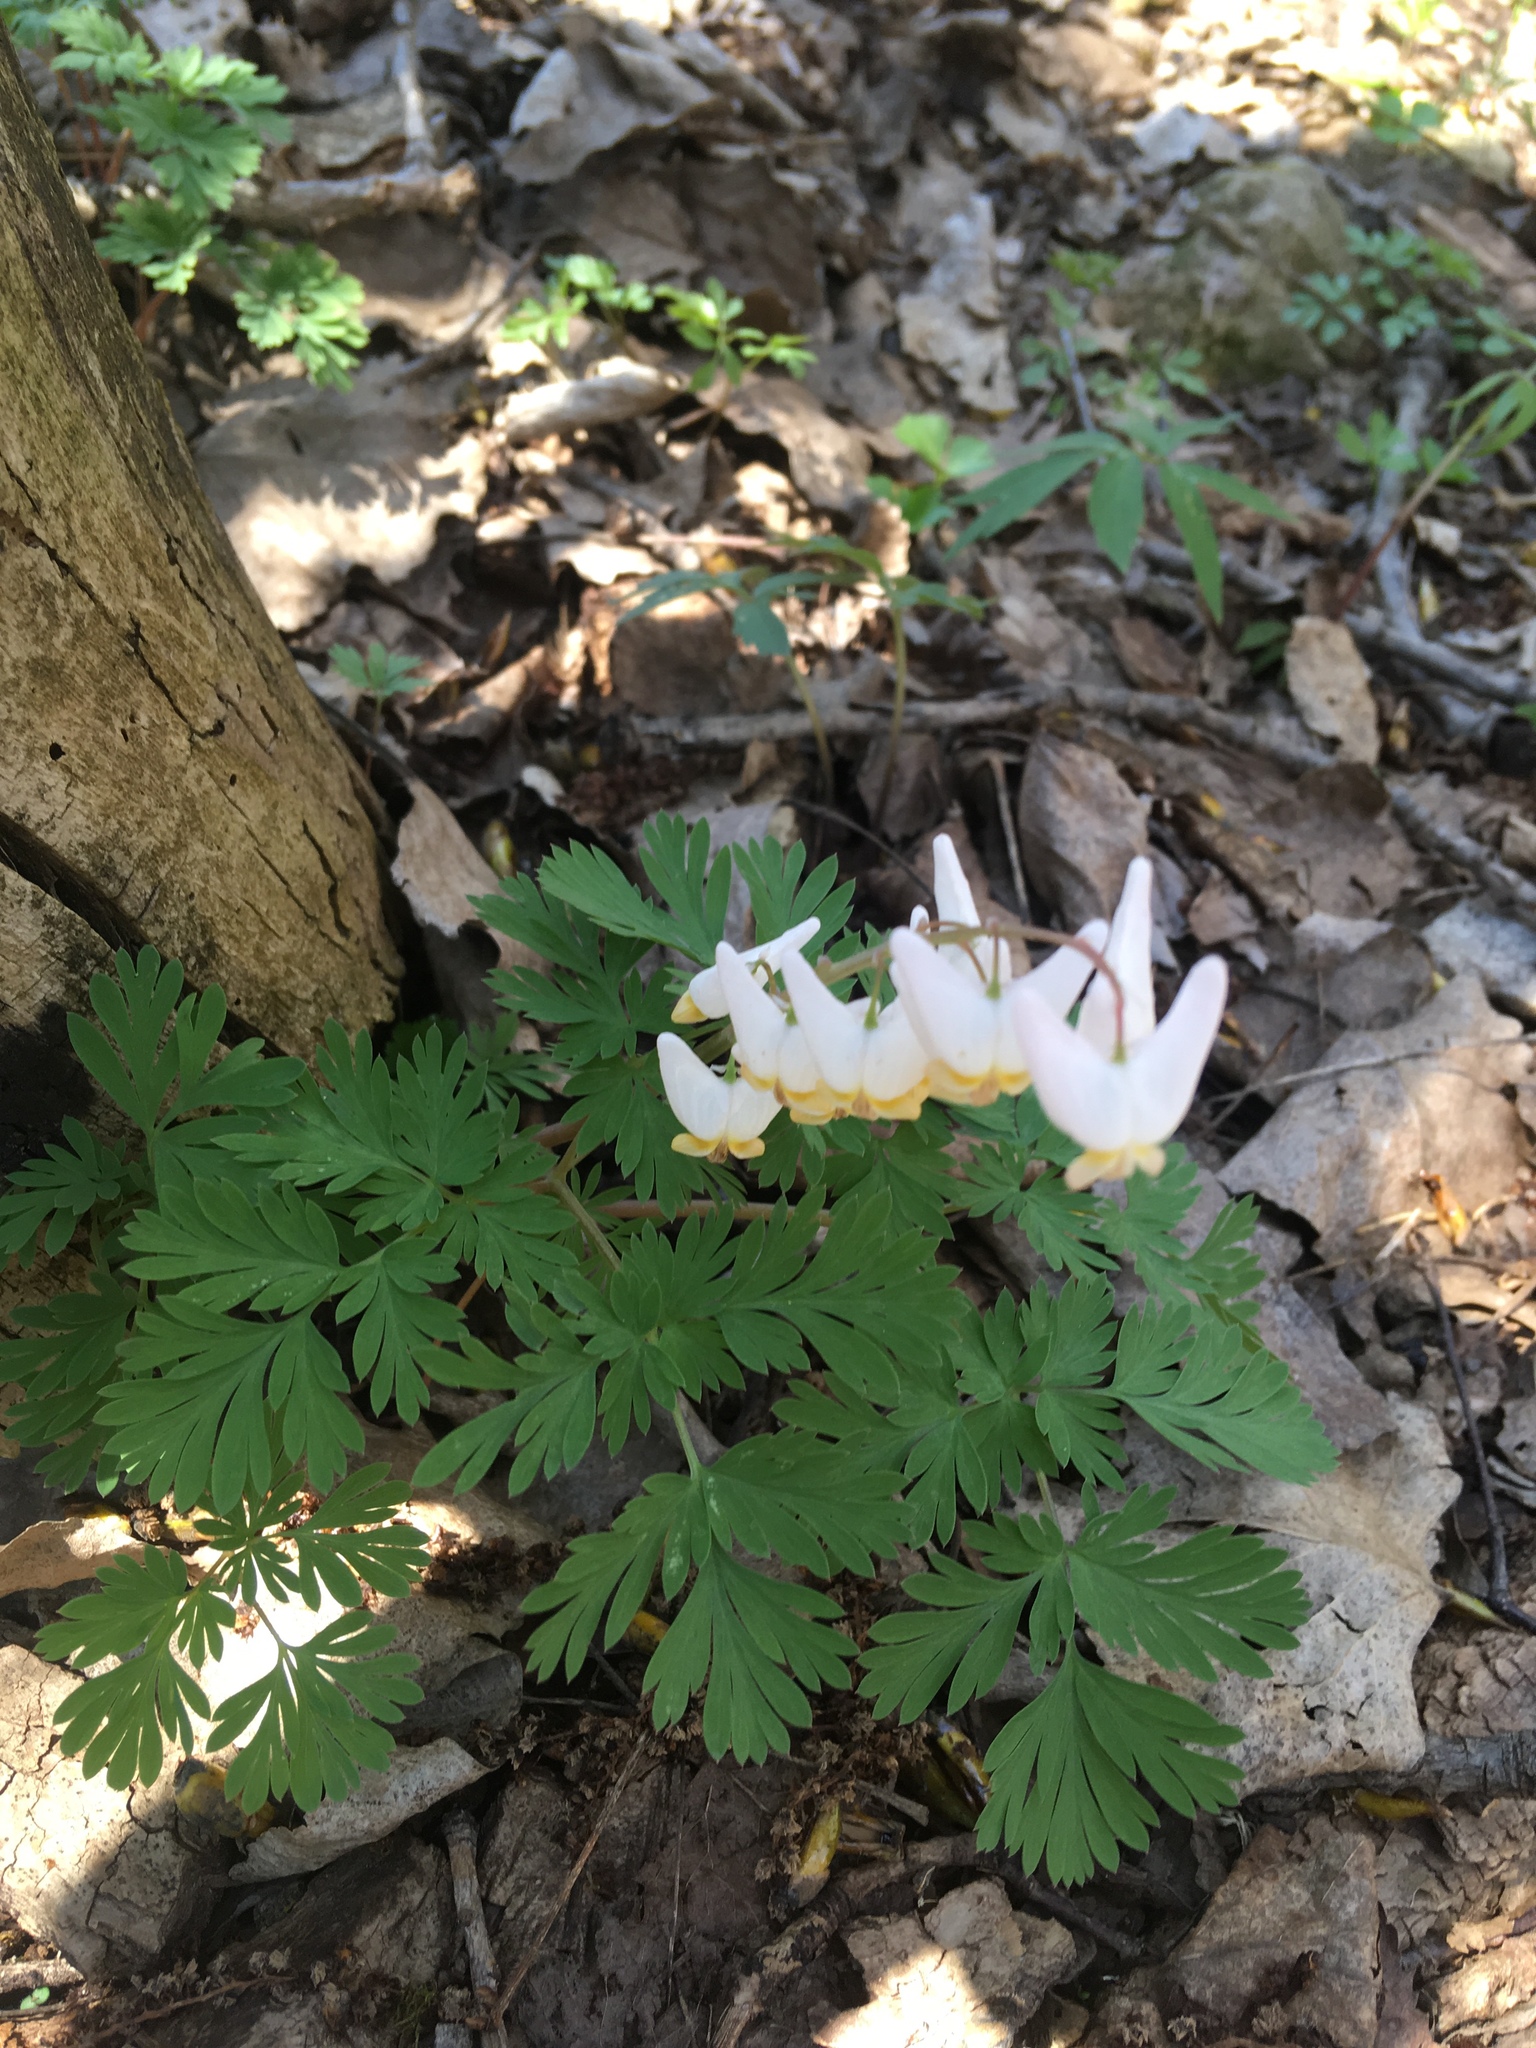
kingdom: Plantae
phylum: Tracheophyta
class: Magnoliopsida
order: Ranunculales
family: Papaveraceae
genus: Dicentra
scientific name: Dicentra cucullaria
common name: Dutchman's breeches
